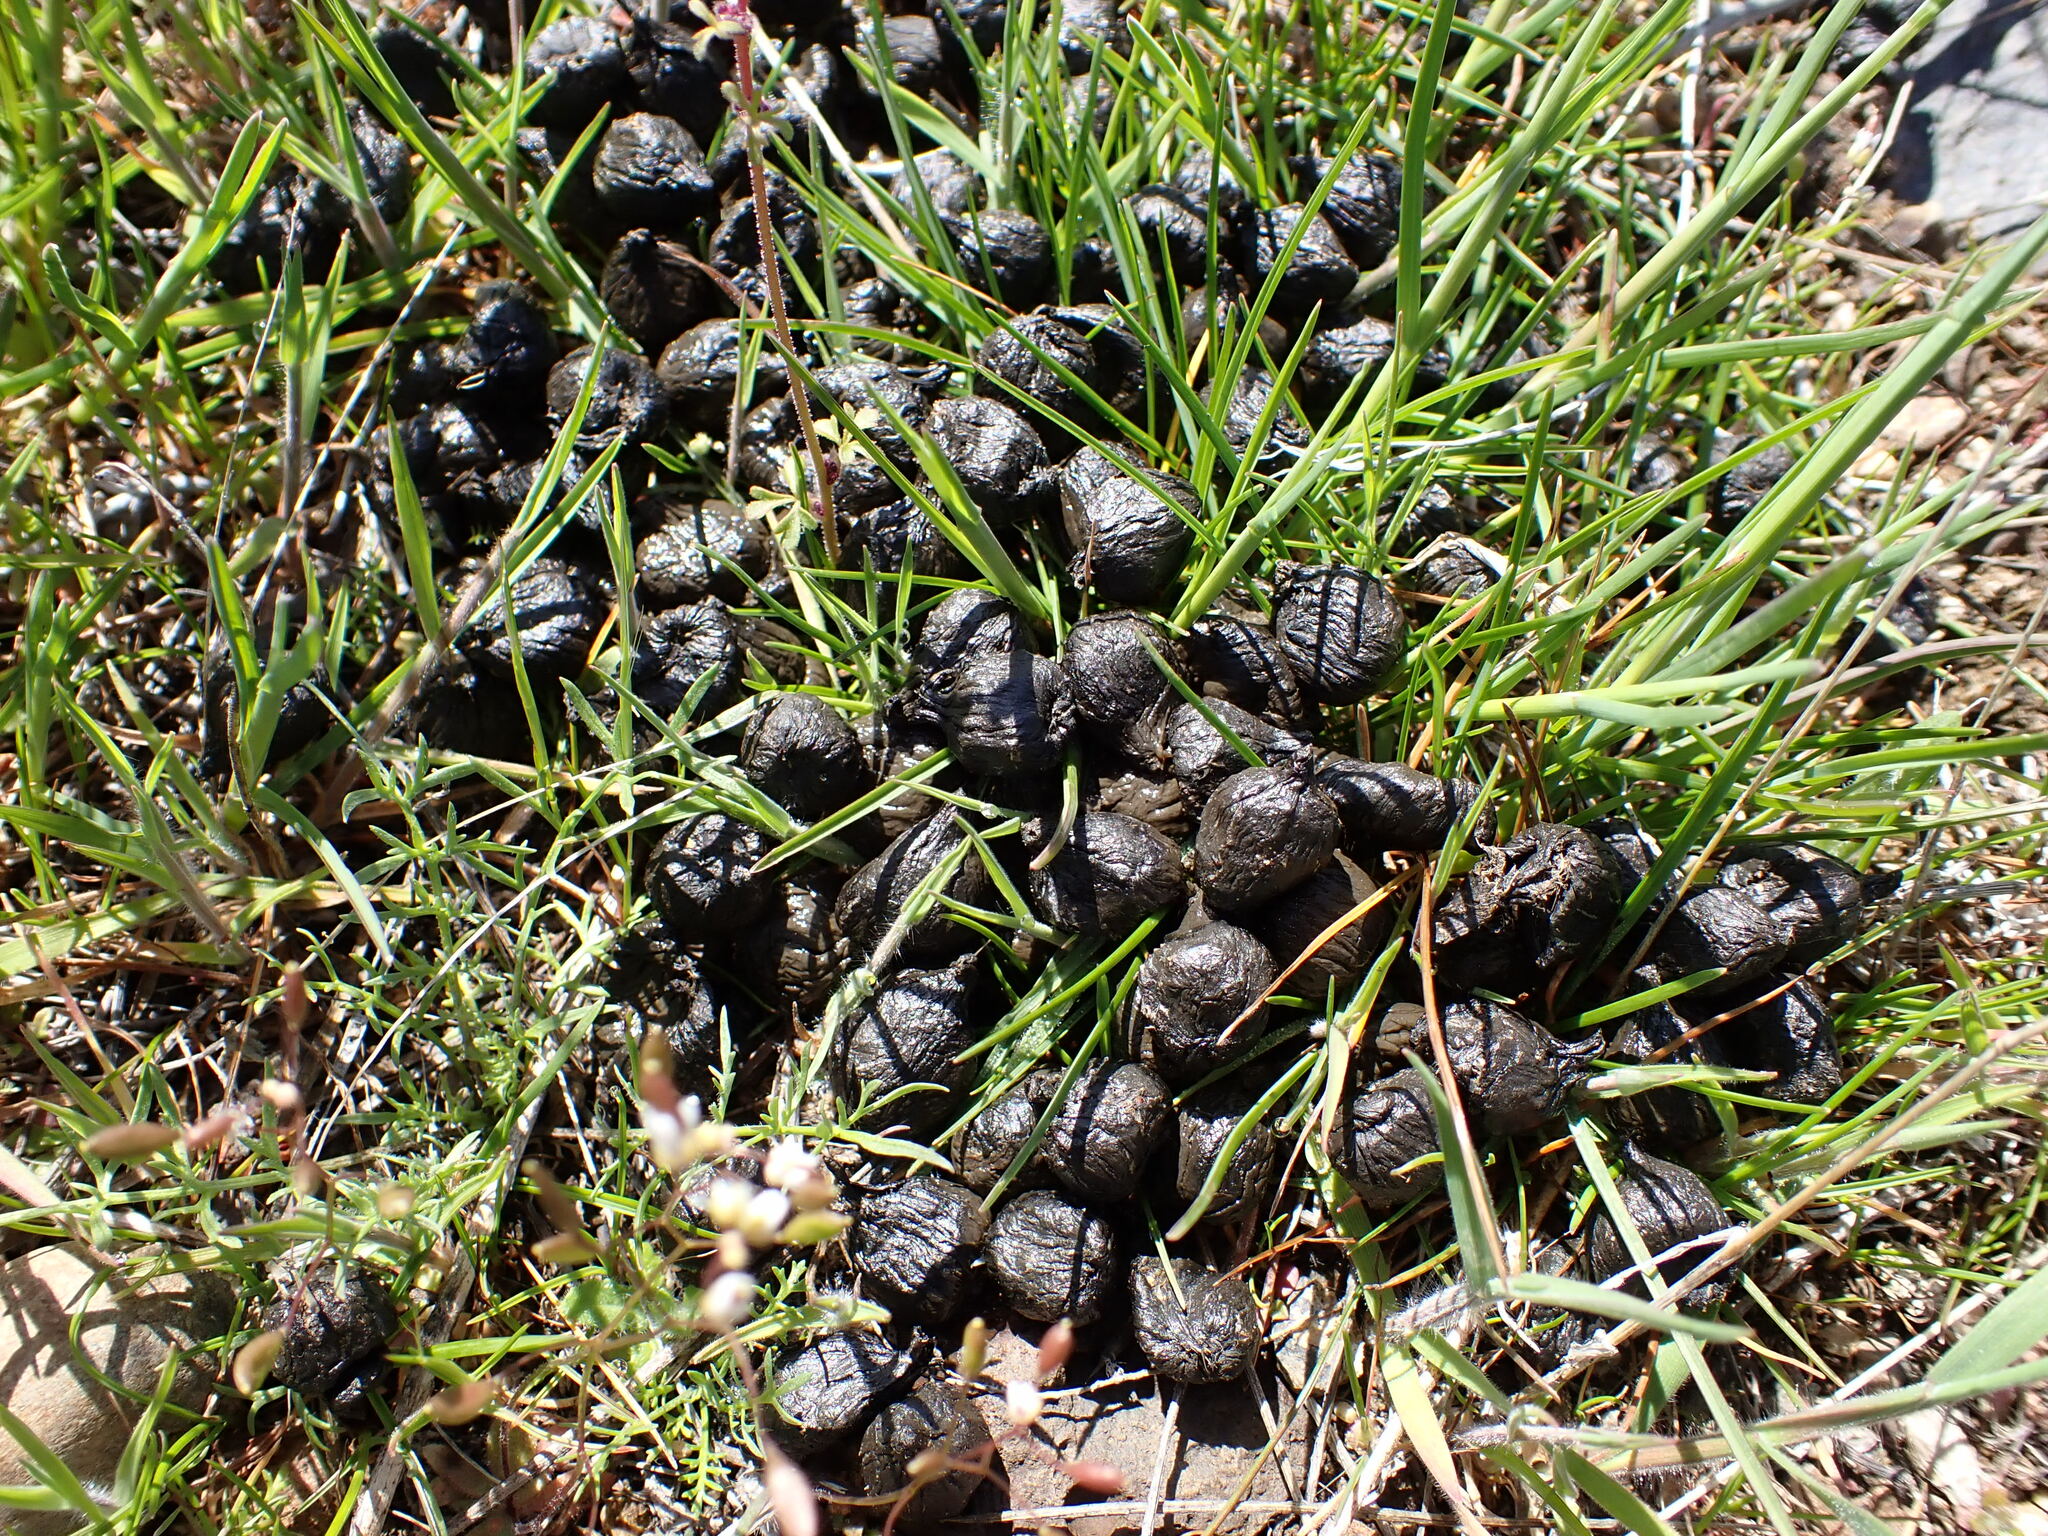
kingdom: Animalia
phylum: Chordata
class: Mammalia
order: Artiodactyla
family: Cervidae
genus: Odocoileus
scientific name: Odocoileus hemionus
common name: Mule deer
